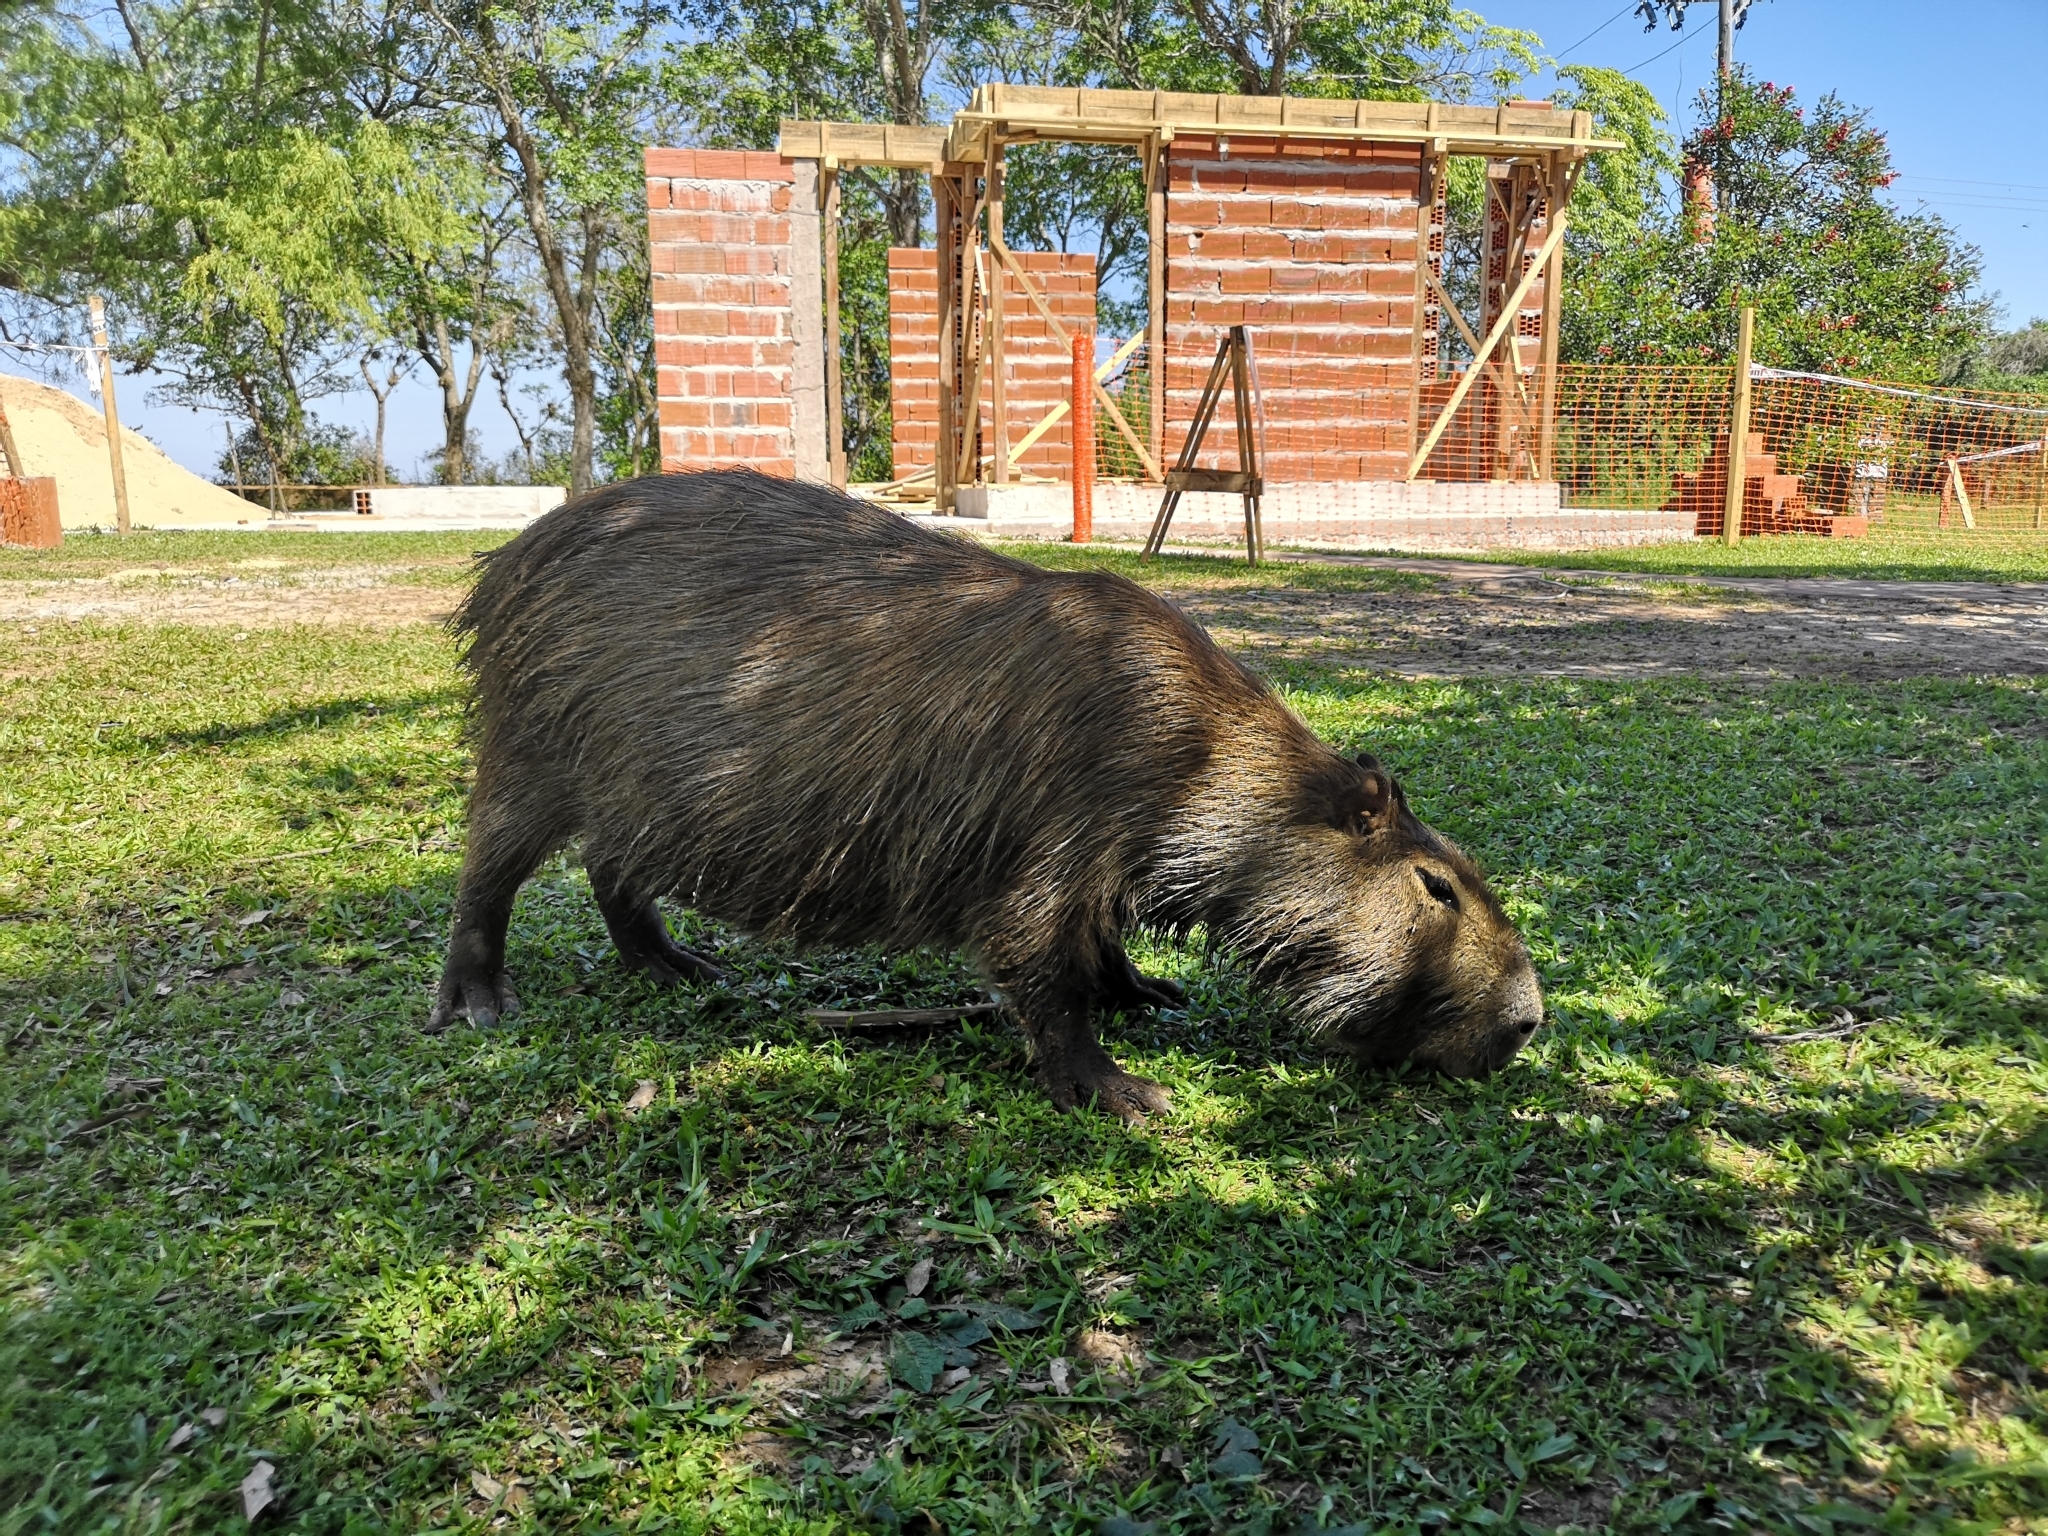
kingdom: Animalia
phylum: Chordata
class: Mammalia
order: Rodentia
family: Caviidae
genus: Hydrochoerus
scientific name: Hydrochoerus hydrochaeris
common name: Capybara
